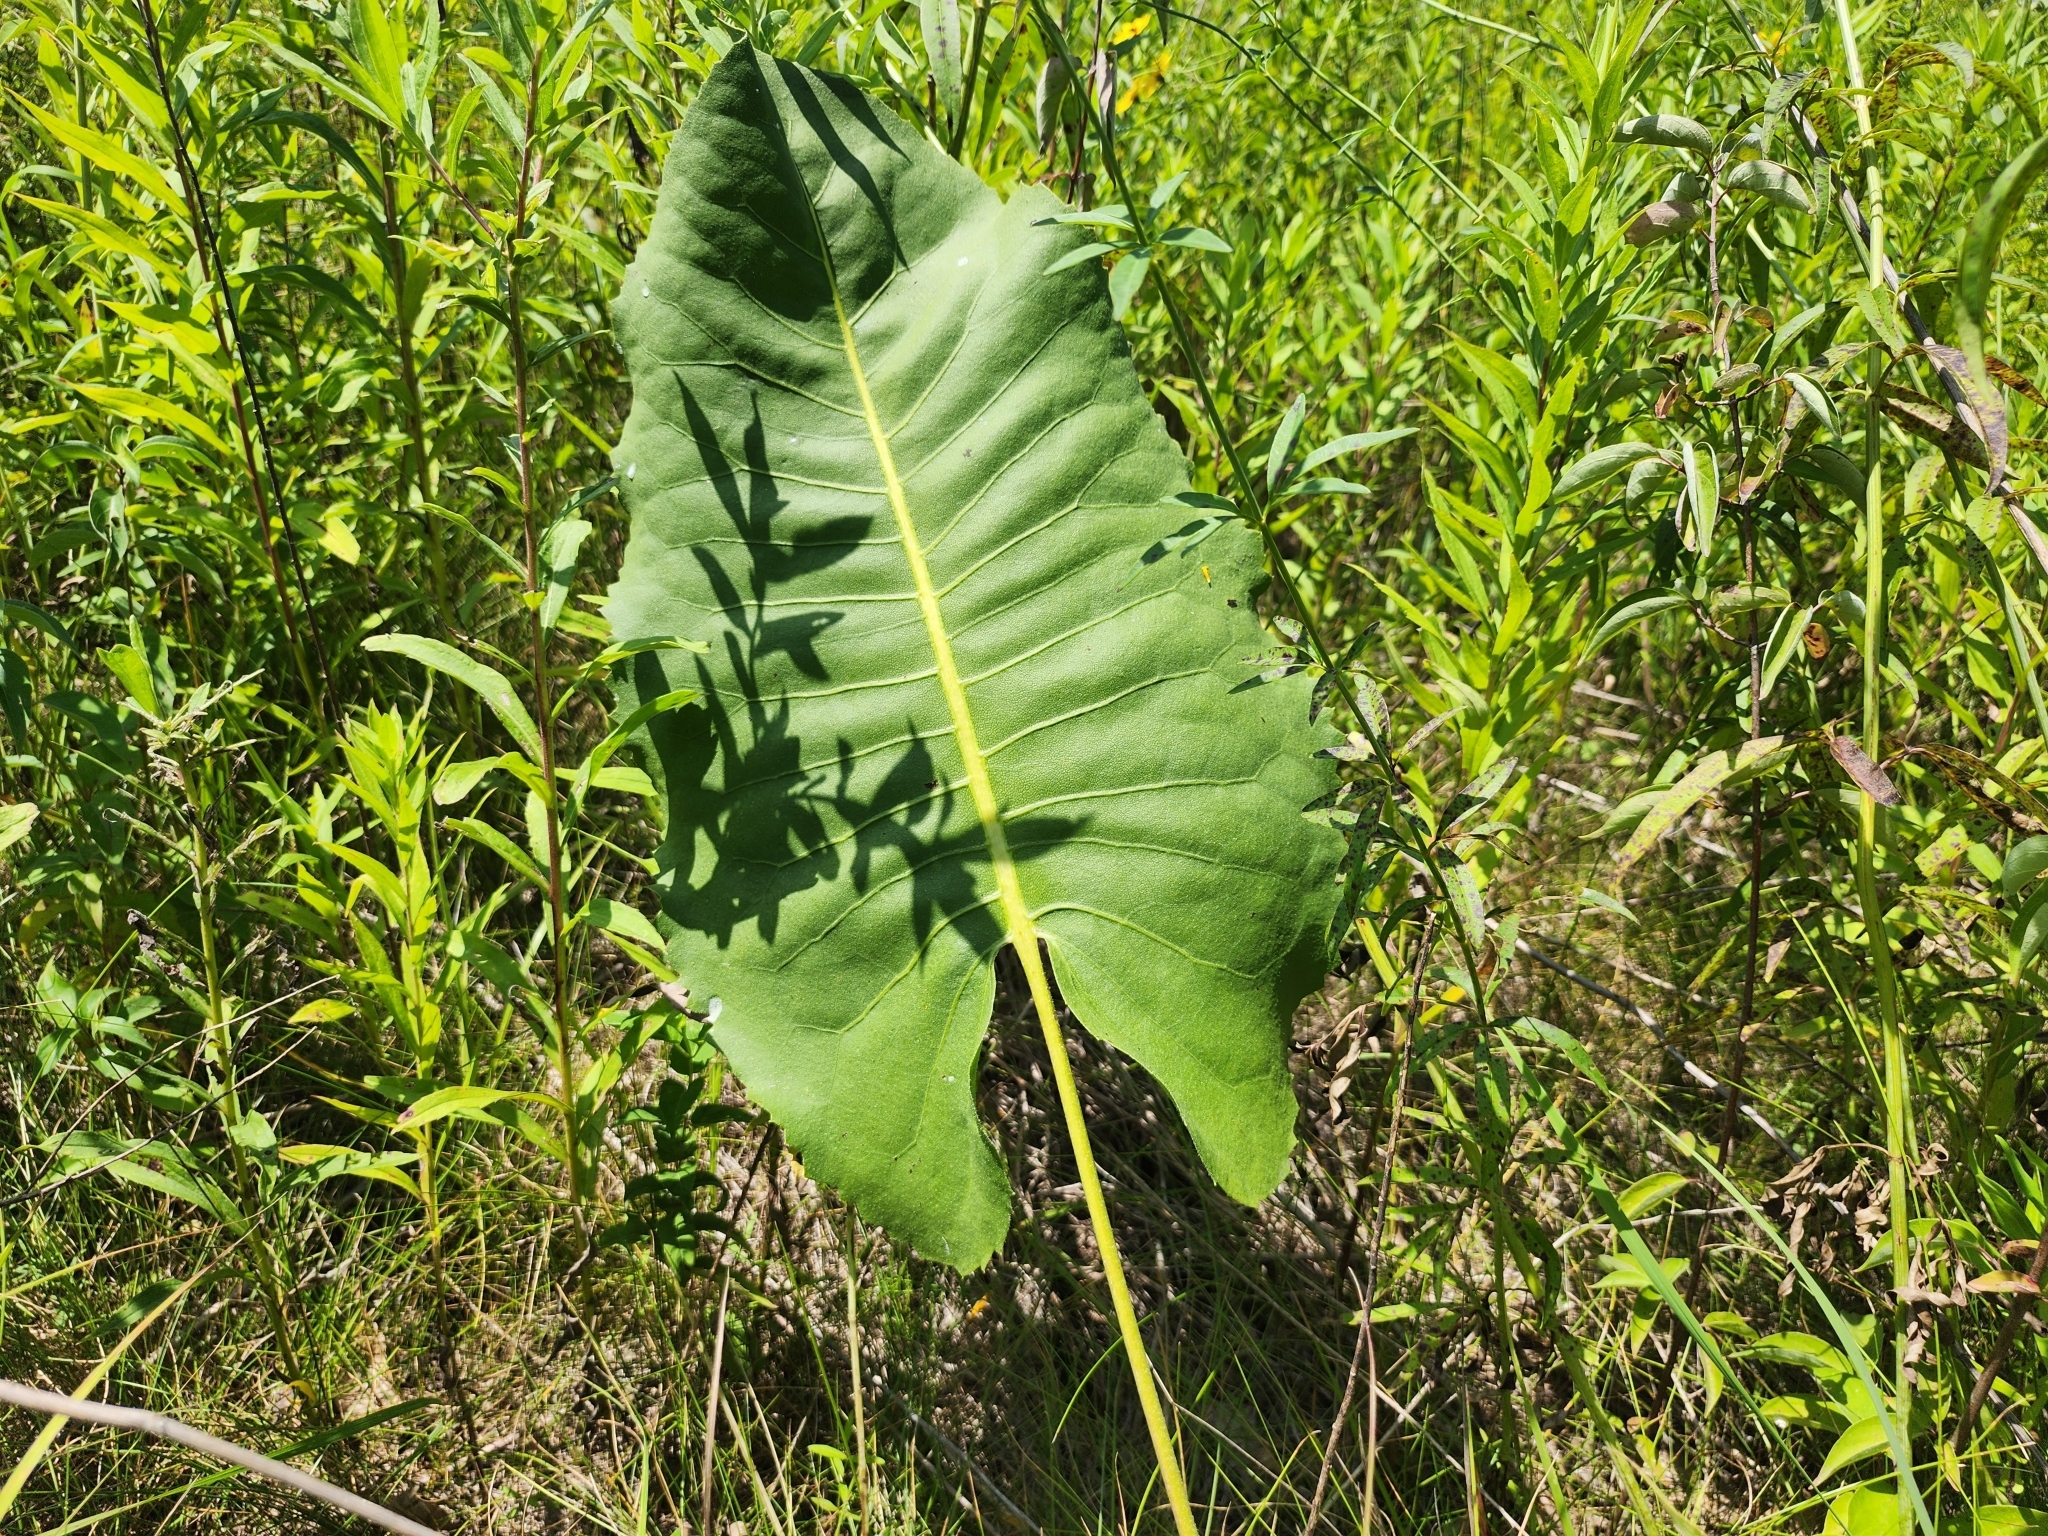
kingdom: Plantae
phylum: Tracheophyta
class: Magnoliopsida
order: Asterales
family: Asteraceae
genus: Silphium
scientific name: Silphium terebinthinaceum
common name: Basal-leaf rosinweed
